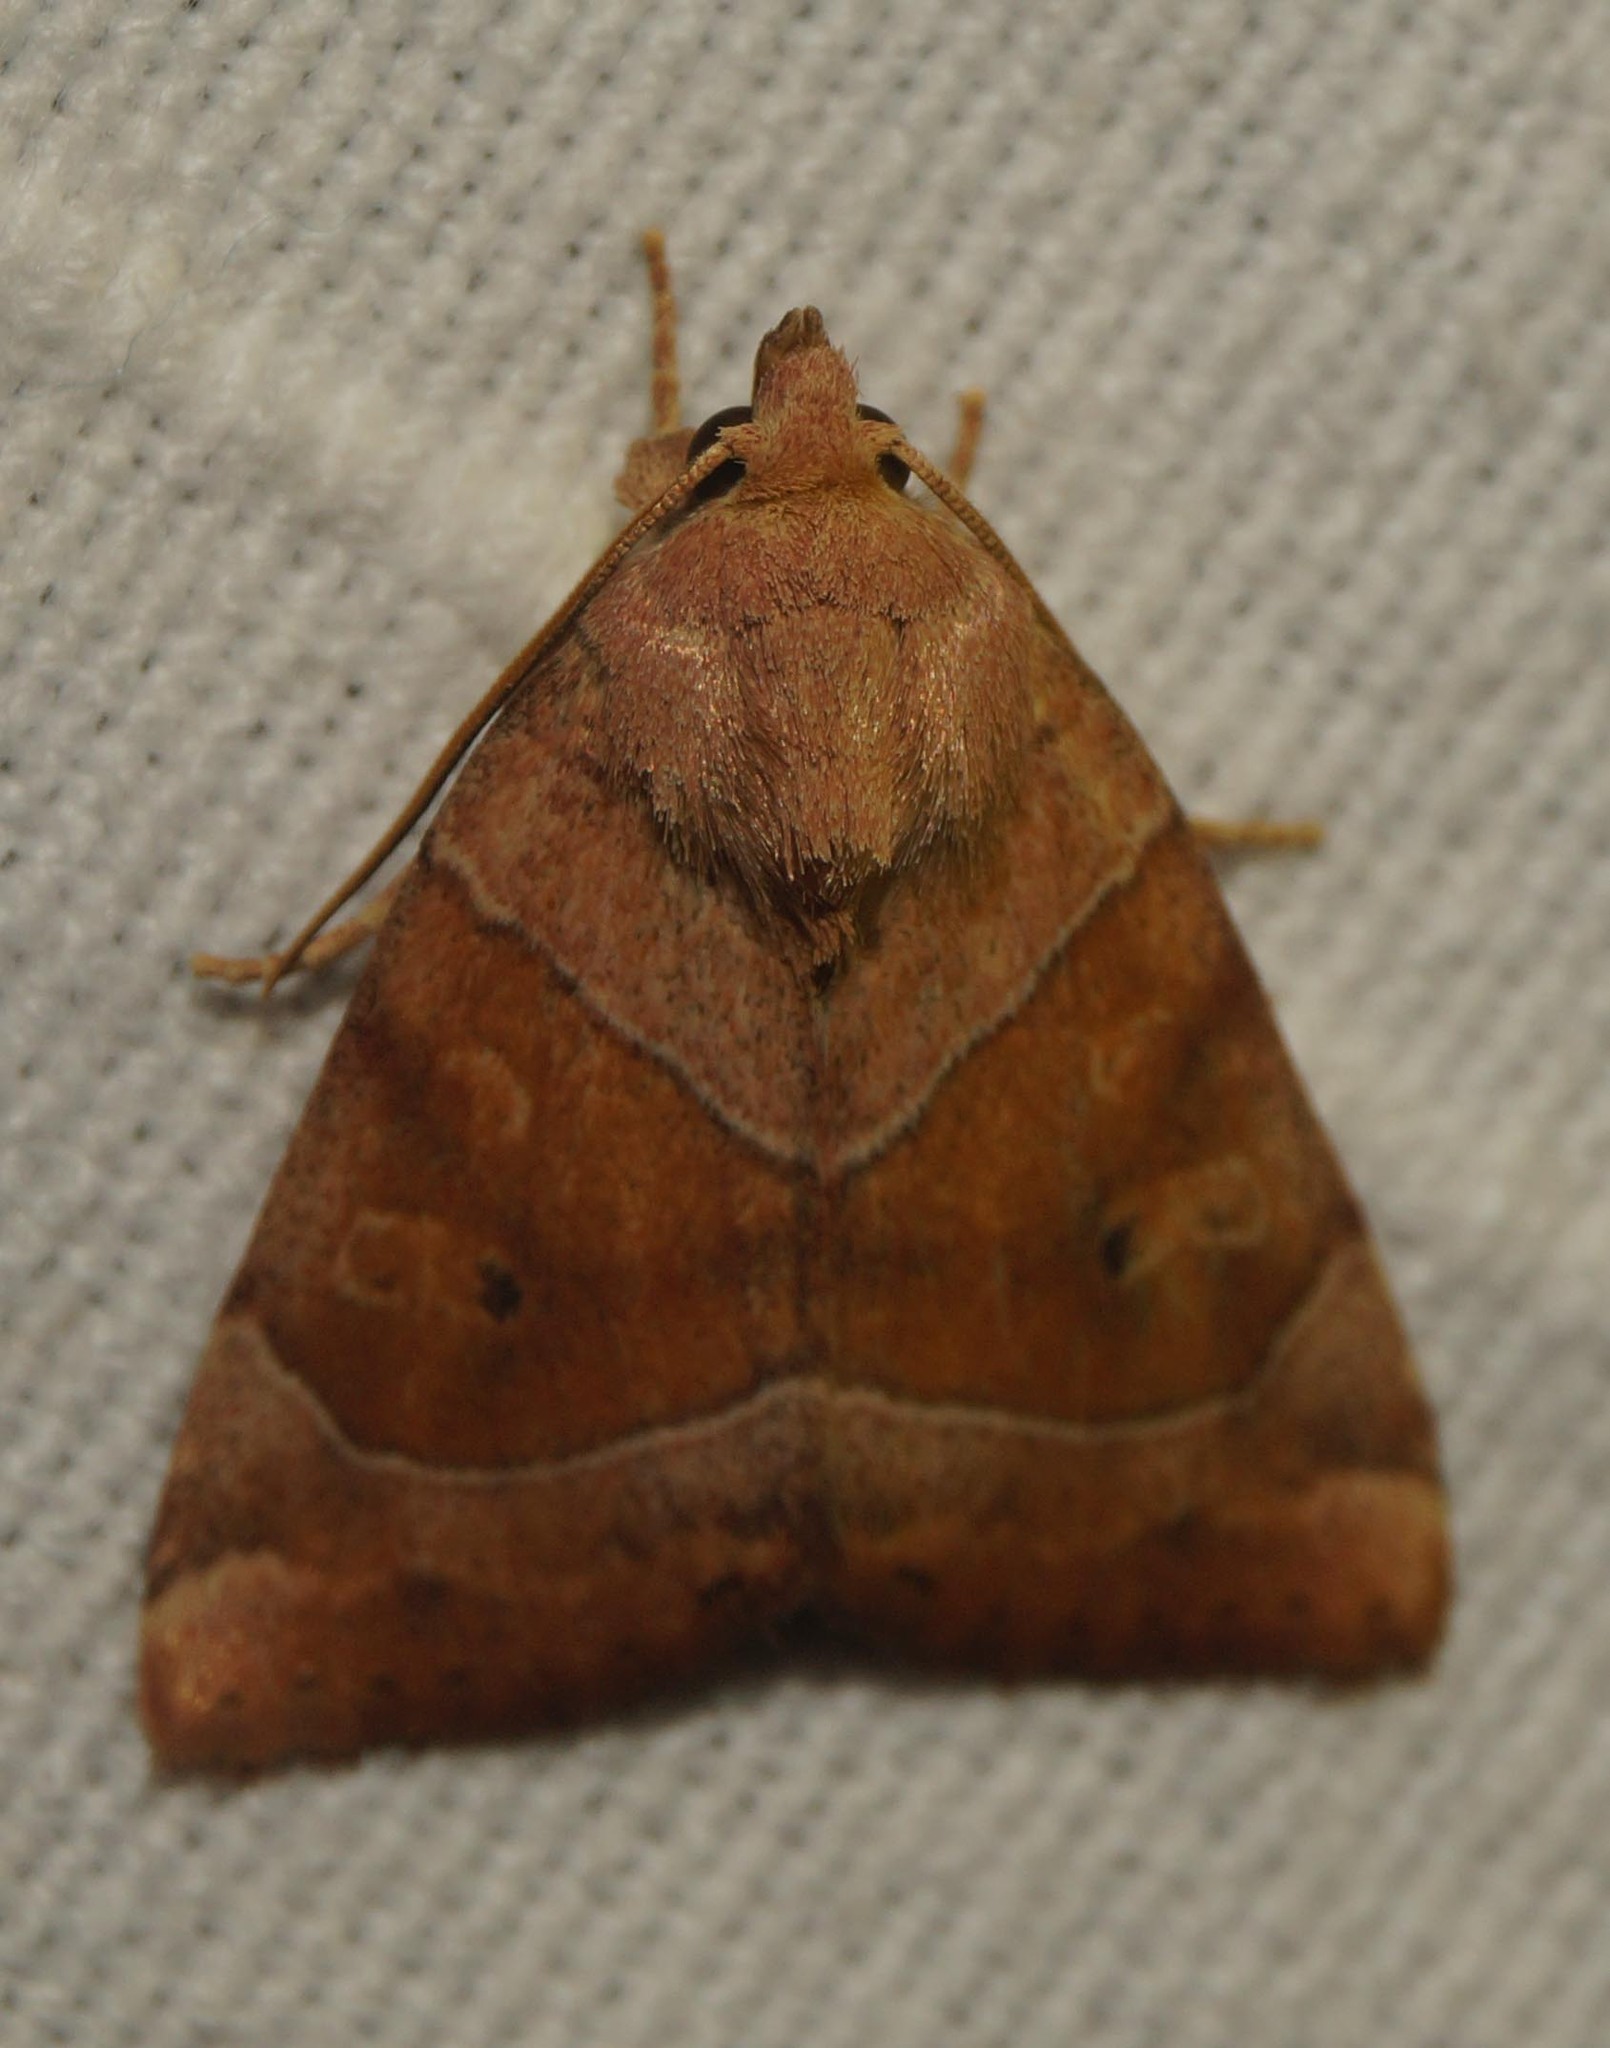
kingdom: Animalia
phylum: Arthropoda
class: Insecta
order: Lepidoptera
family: Noctuidae
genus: Cosmia
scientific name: Cosmia trapezina
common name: Dun-bar
